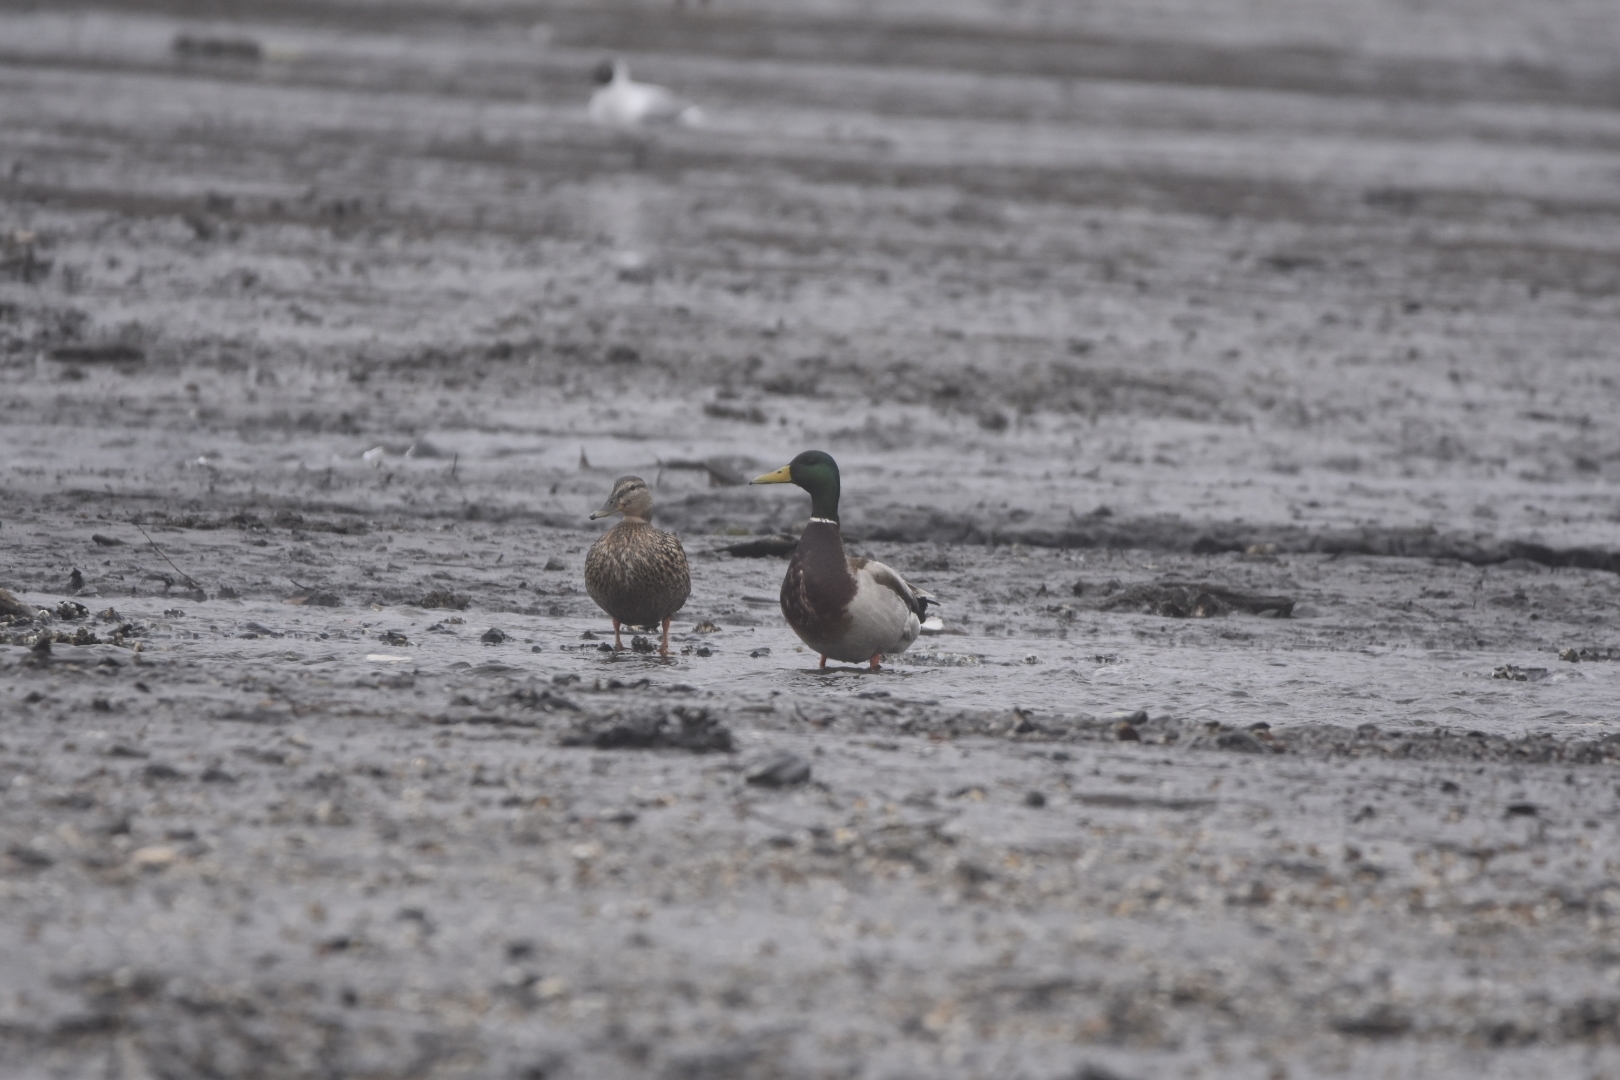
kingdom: Animalia
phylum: Chordata
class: Aves
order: Anseriformes
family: Anatidae
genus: Anas
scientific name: Anas platyrhynchos
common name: Mallard
